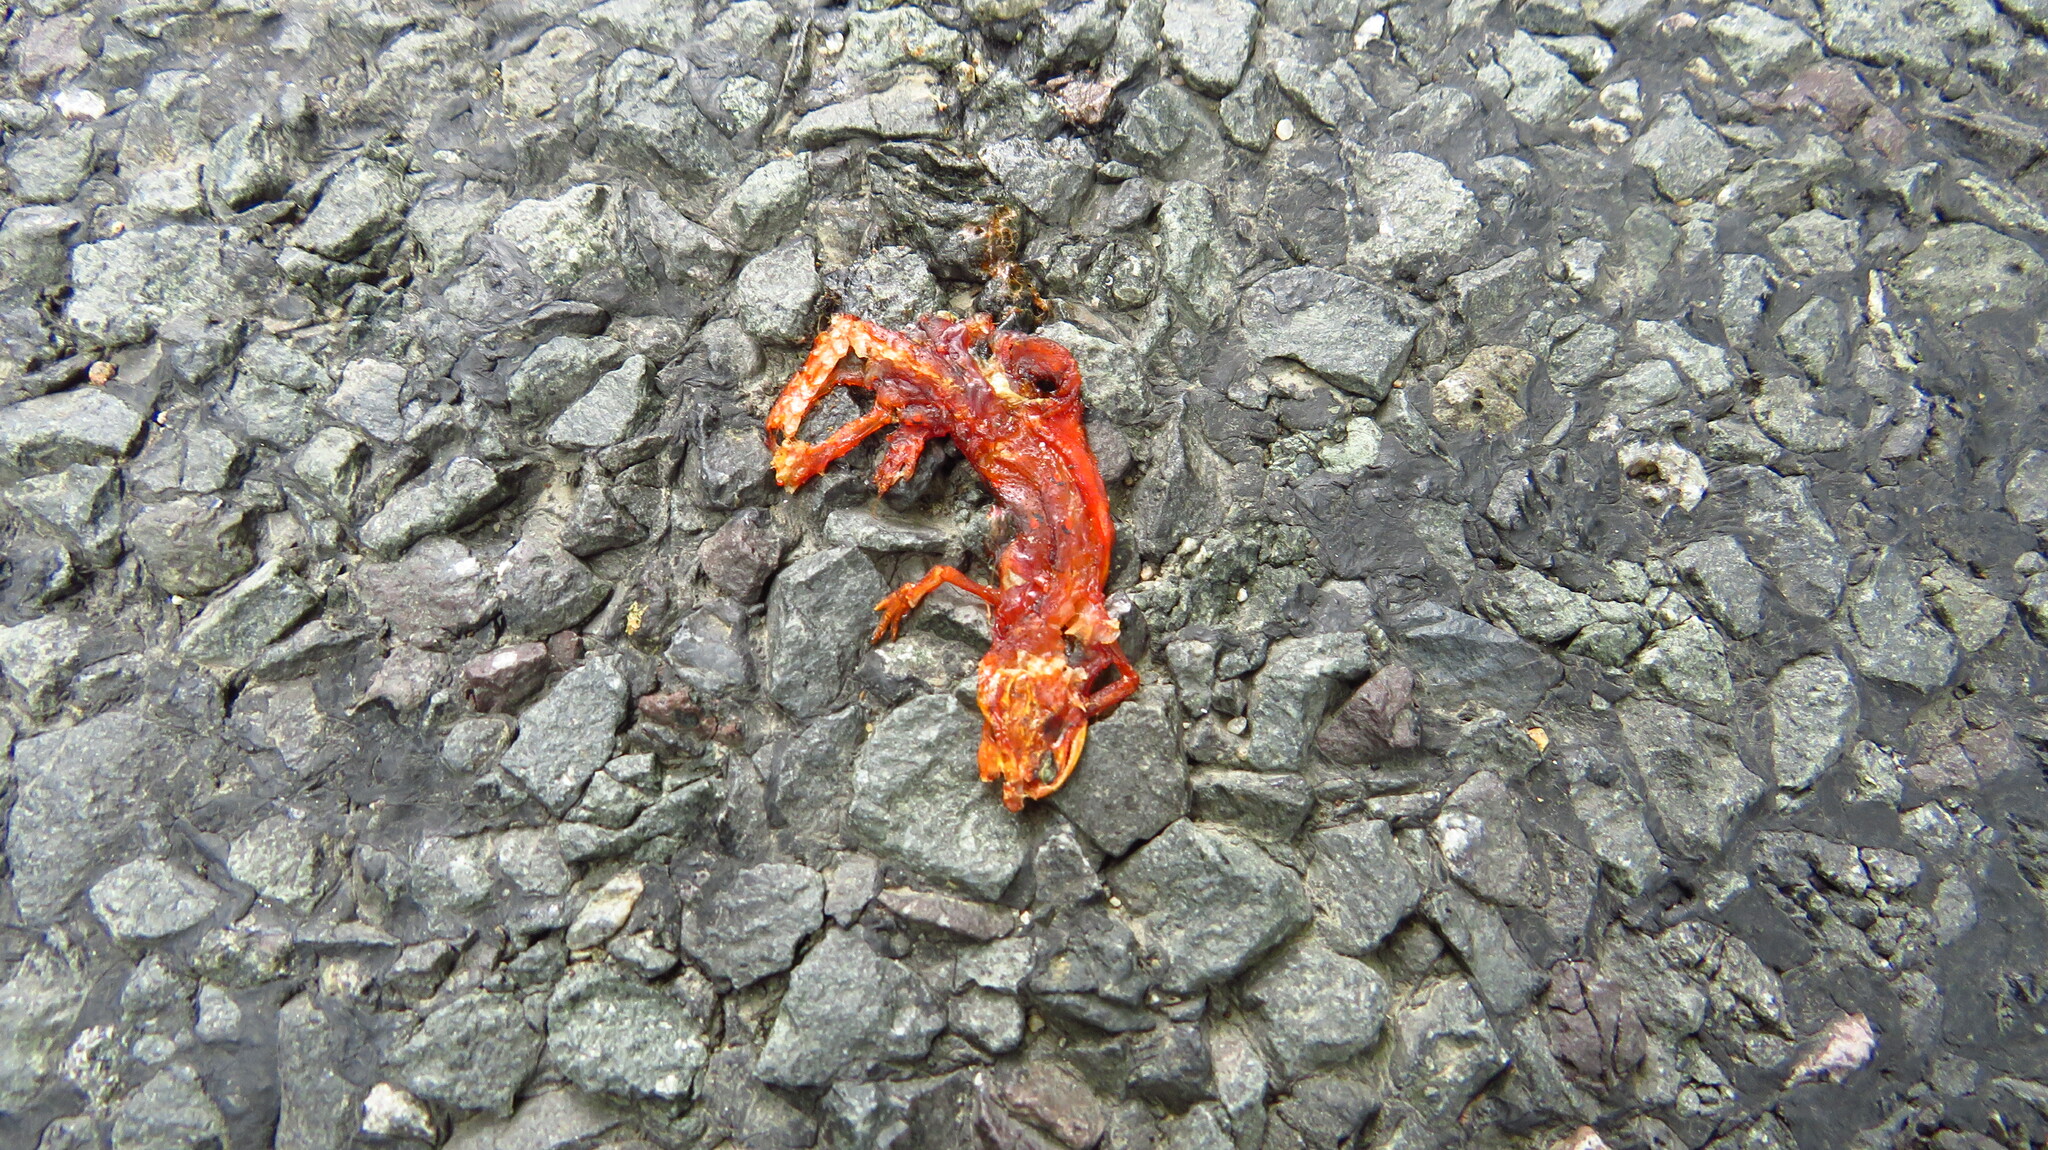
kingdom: Animalia
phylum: Chordata
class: Amphibia
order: Caudata
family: Salamandridae
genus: Notophthalmus
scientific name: Notophthalmus viridescens
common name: Eastern newt
